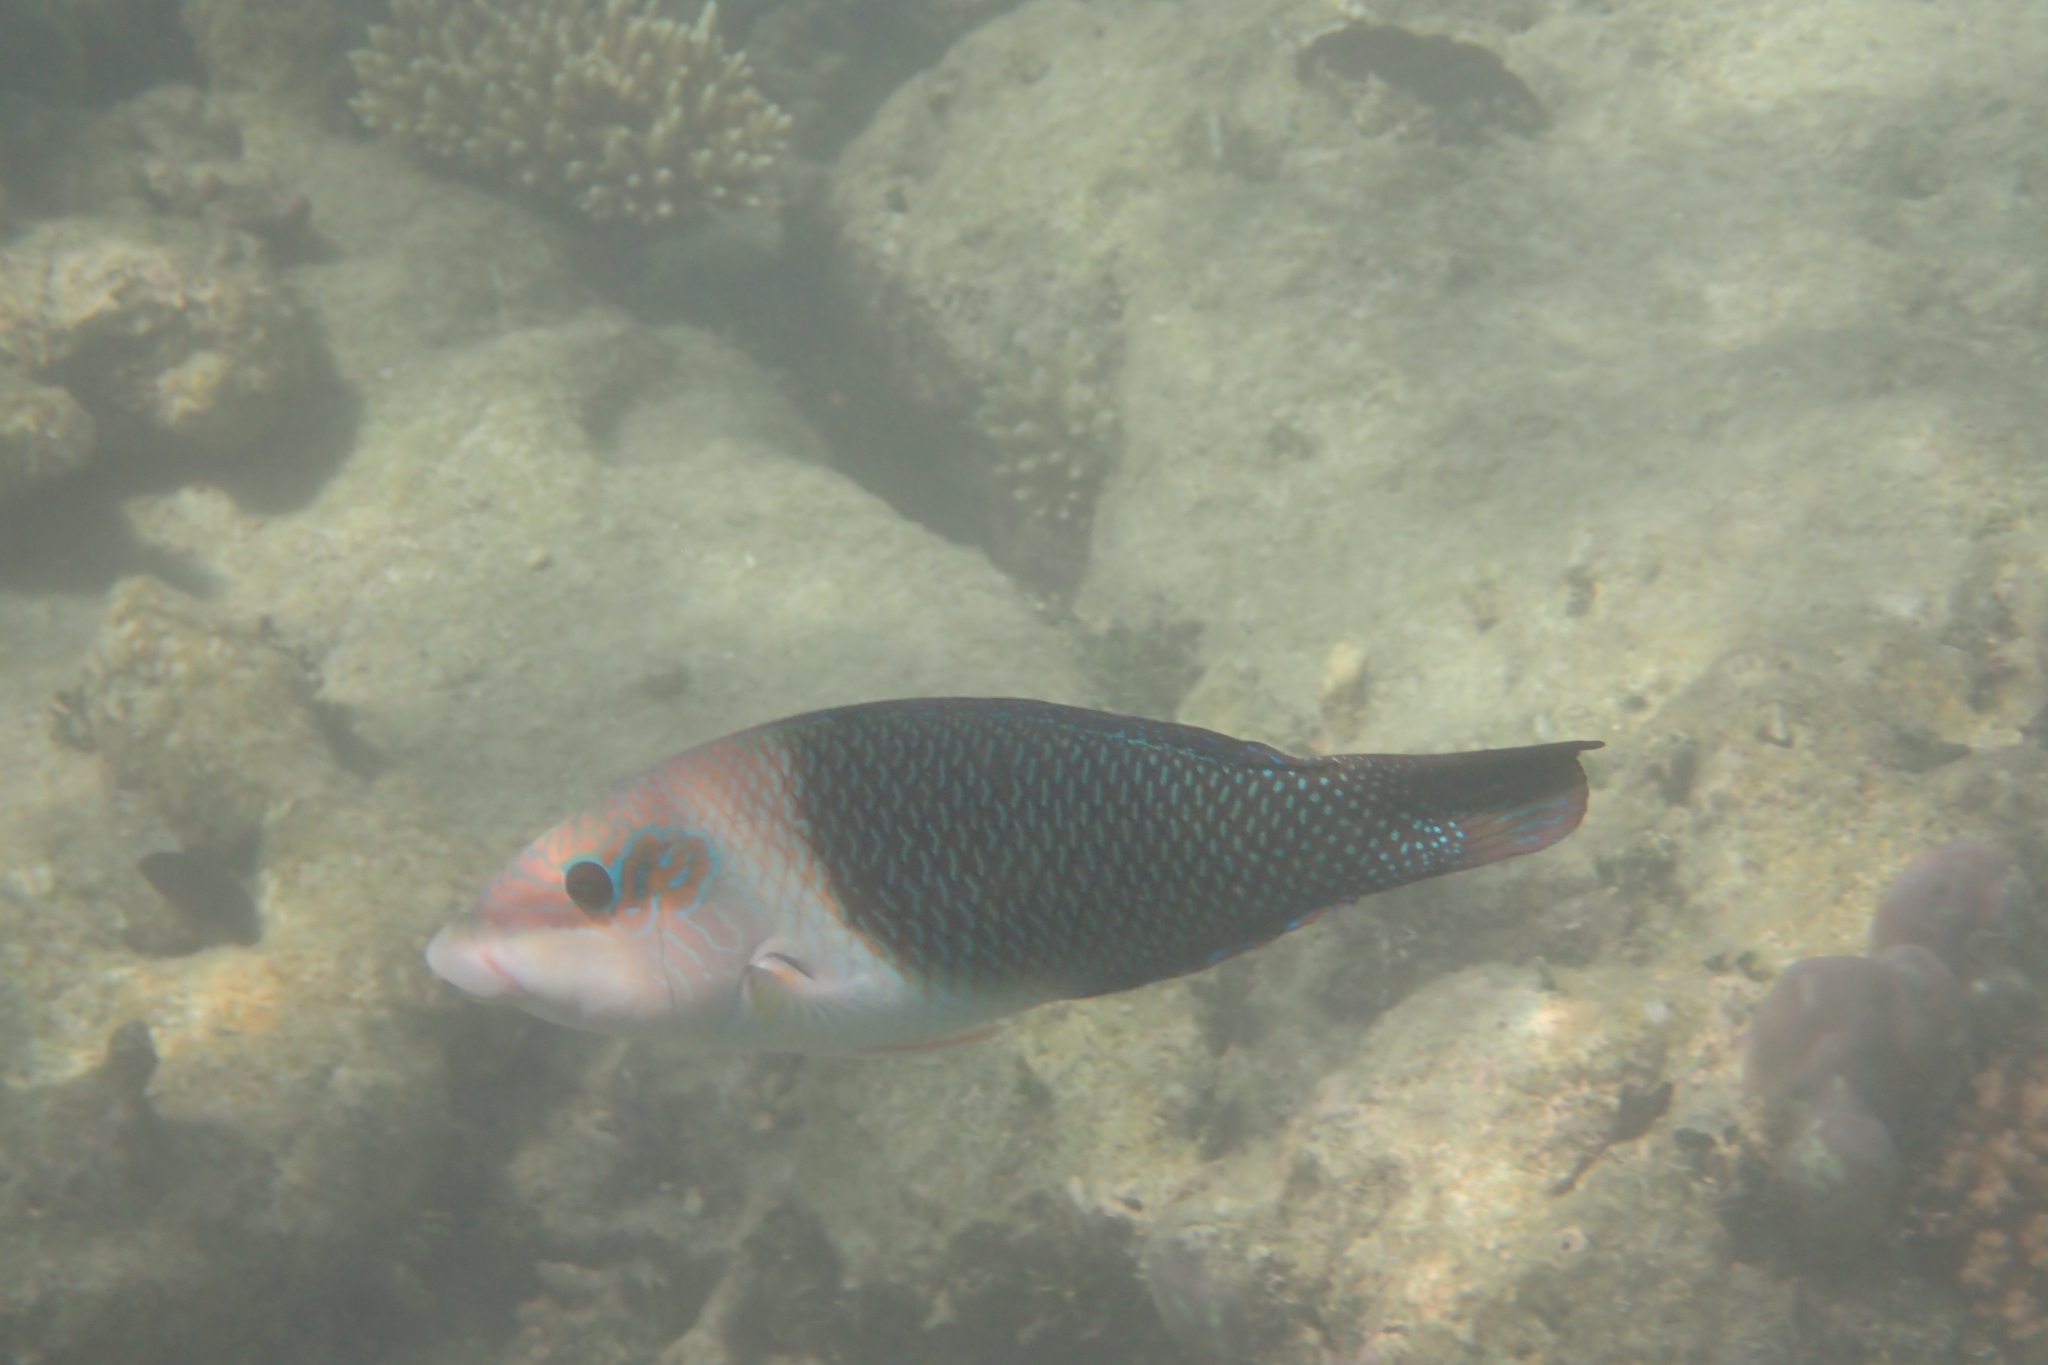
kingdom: Animalia
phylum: Chordata
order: Perciformes
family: Labridae
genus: Hemigymnus
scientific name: Hemigymnus melapterus
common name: Blackeye thicklip
